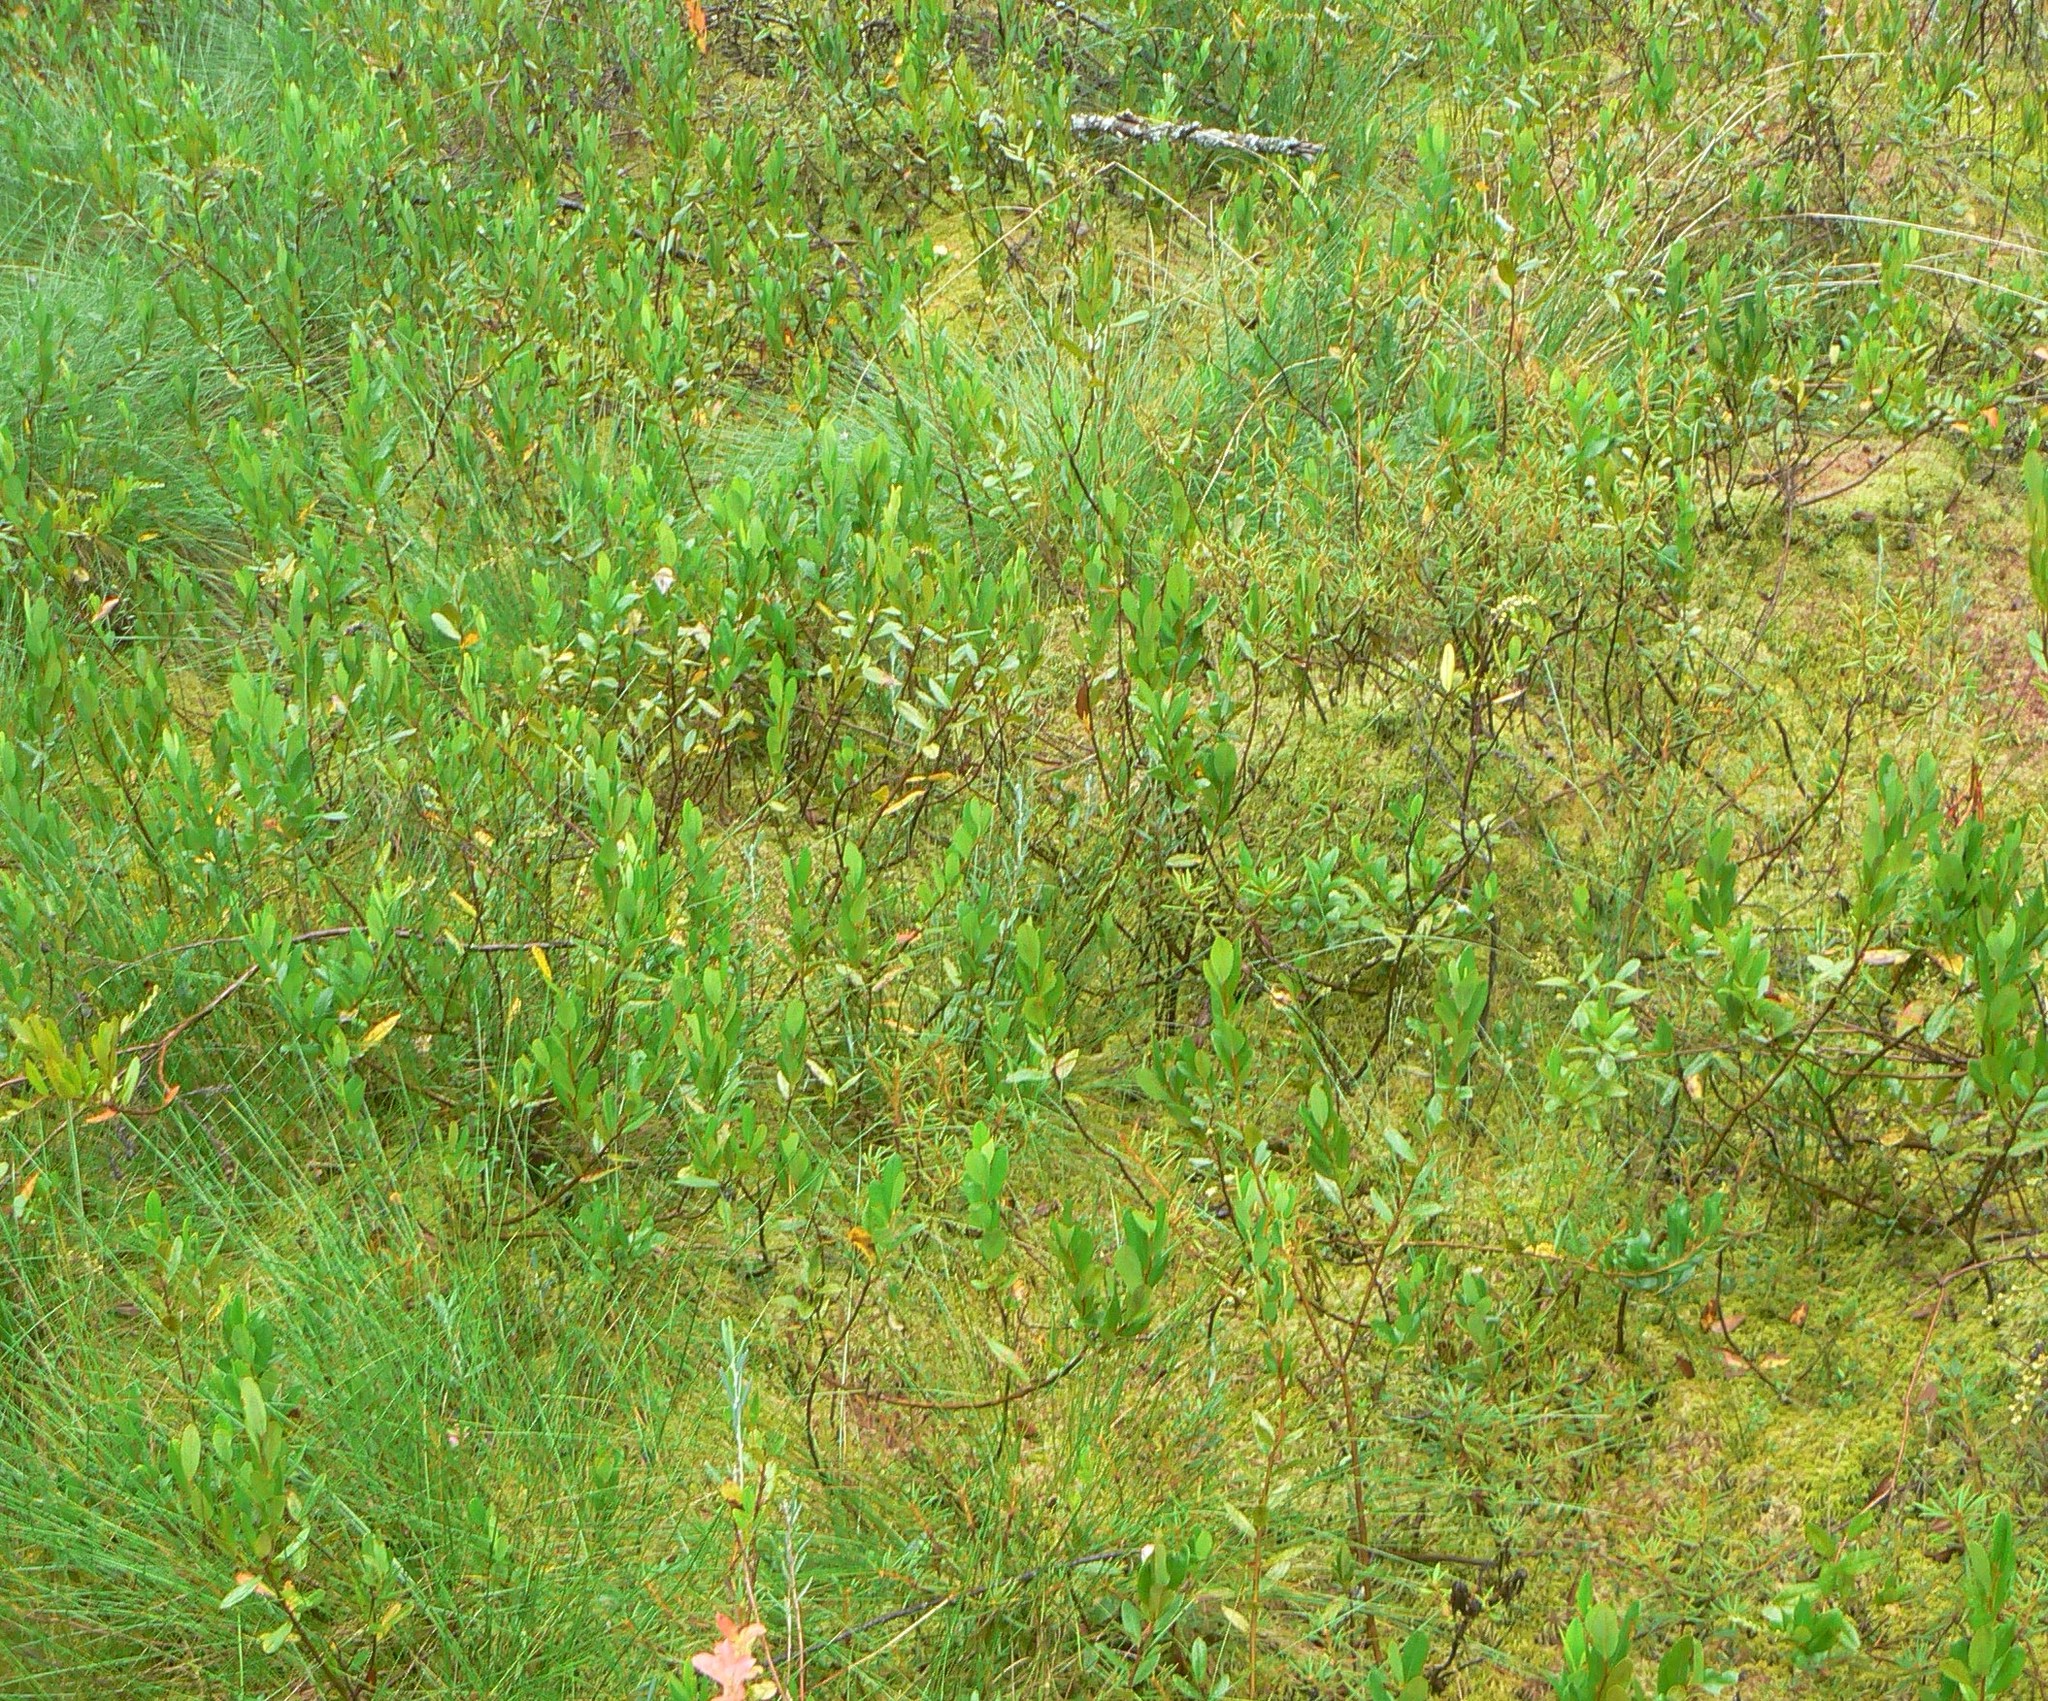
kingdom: Plantae
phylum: Tracheophyta
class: Magnoliopsida
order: Ericales
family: Ericaceae
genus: Chamaedaphne
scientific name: Chamaedaphne calyculata
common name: Leatherleaf
